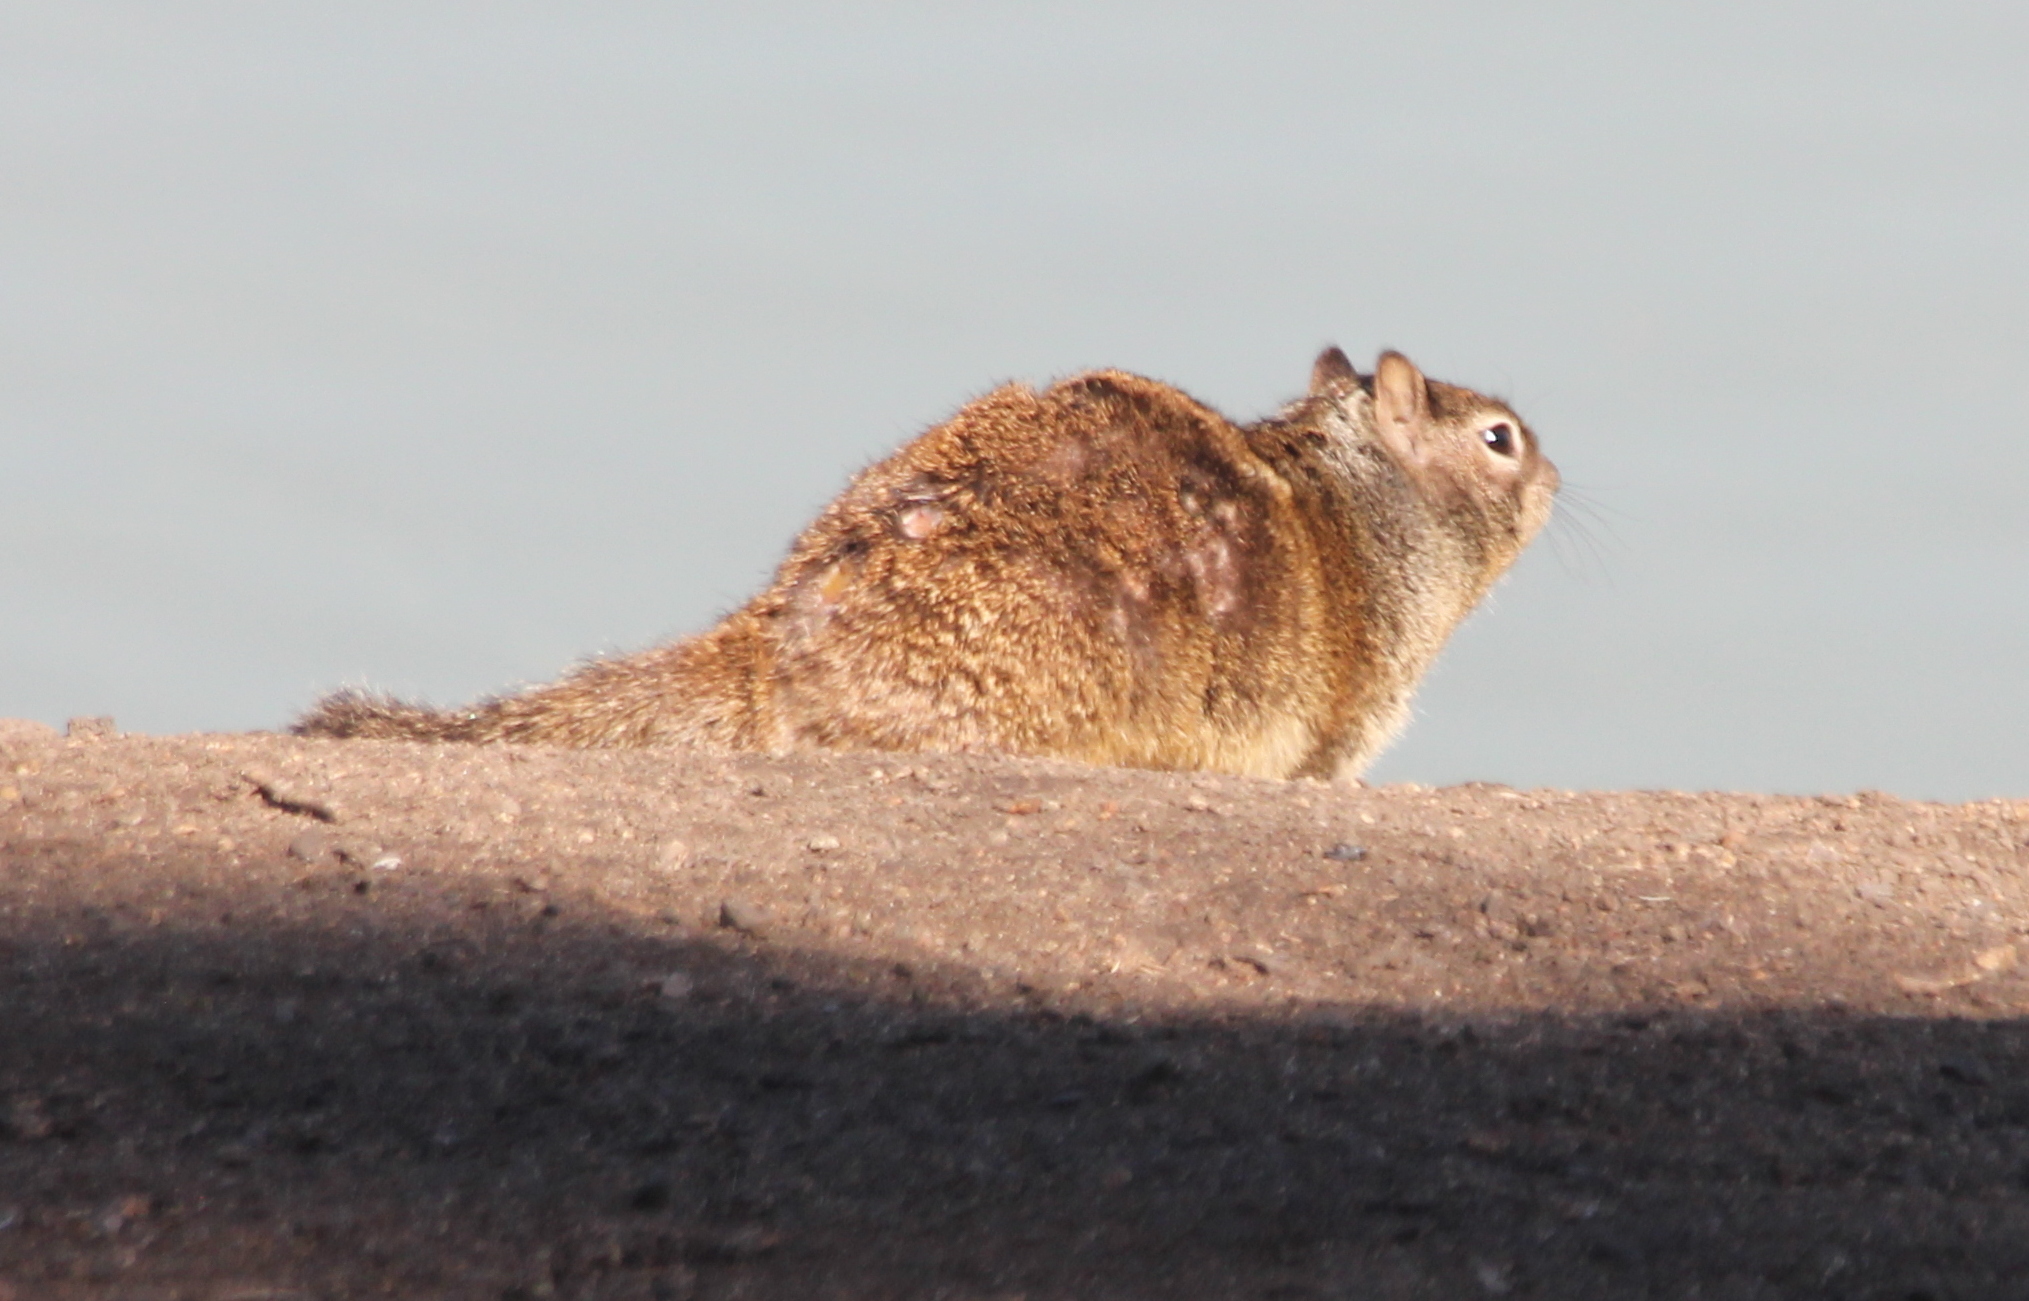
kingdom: Animalia
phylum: Chordata
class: Mammalia
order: Rodentia
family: Sciuridae
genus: Otospermophilus
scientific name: Otospermophilus beecheyi
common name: California ground squirrel
